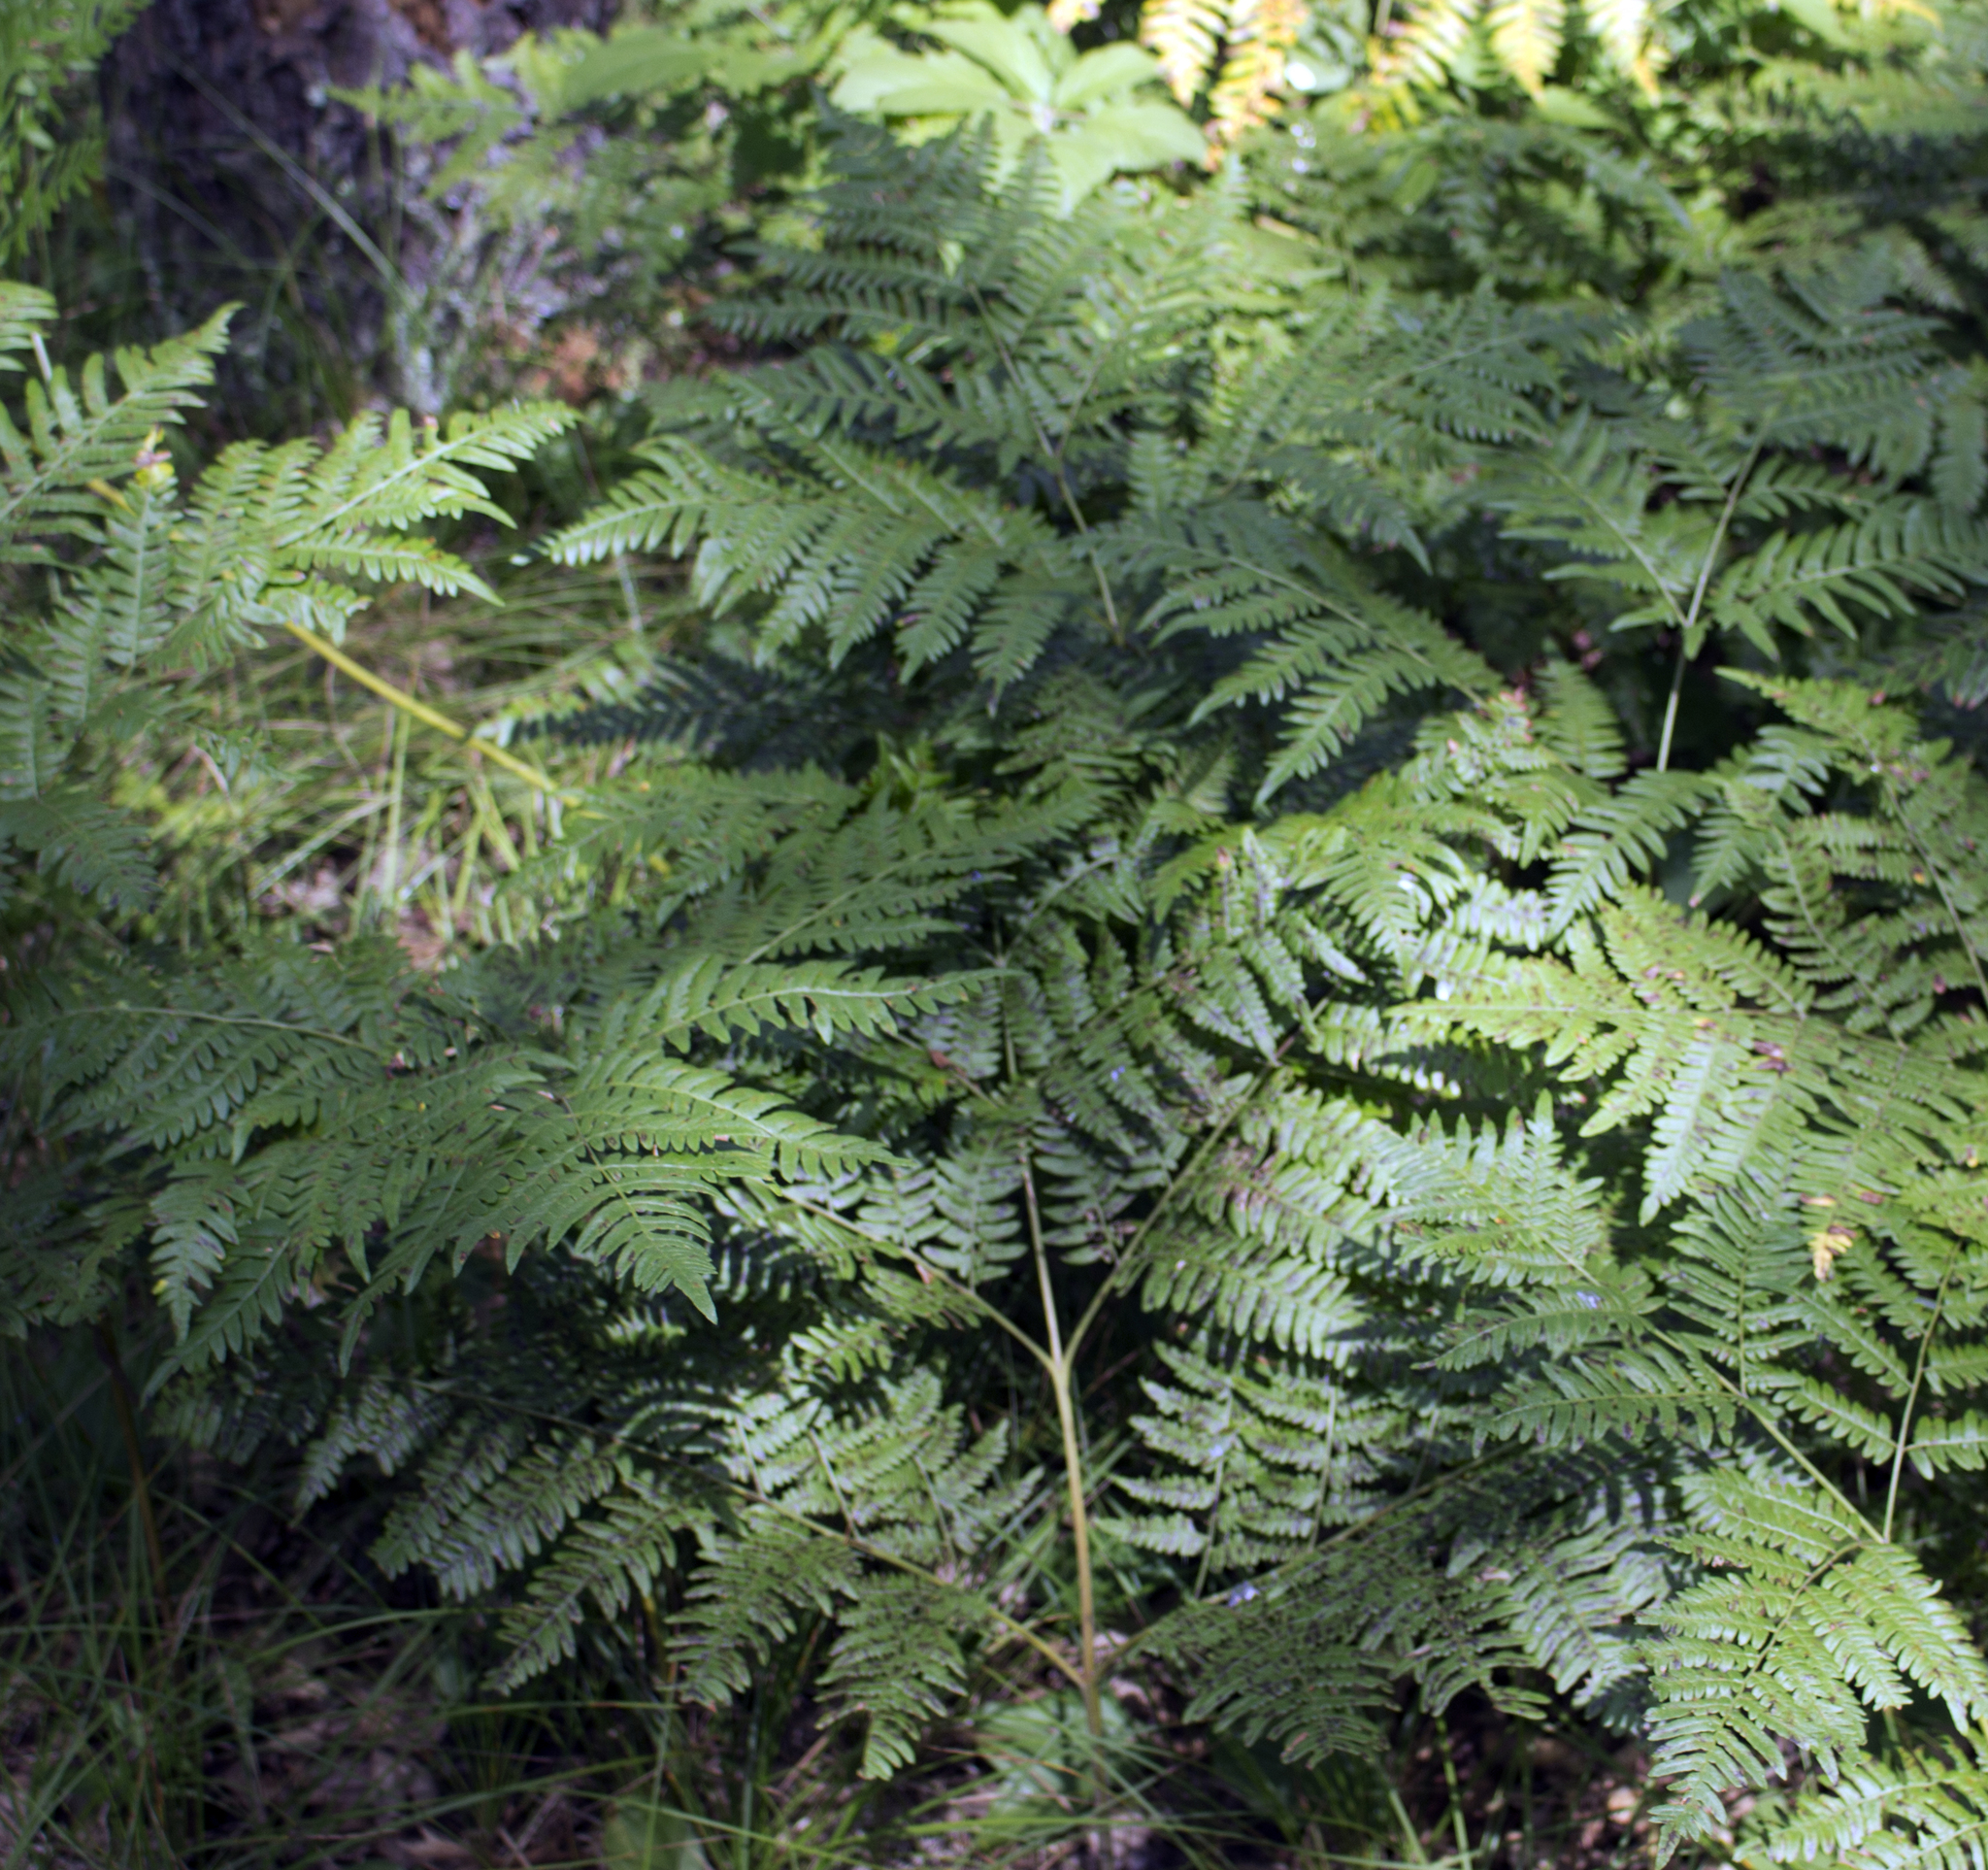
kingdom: Plantae
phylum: Tracheophyta
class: Polypodiopsida
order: Polypodiales
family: Dennstaedtiaceae
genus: Pteridium
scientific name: Pteridium aquilinum
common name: Bracken
